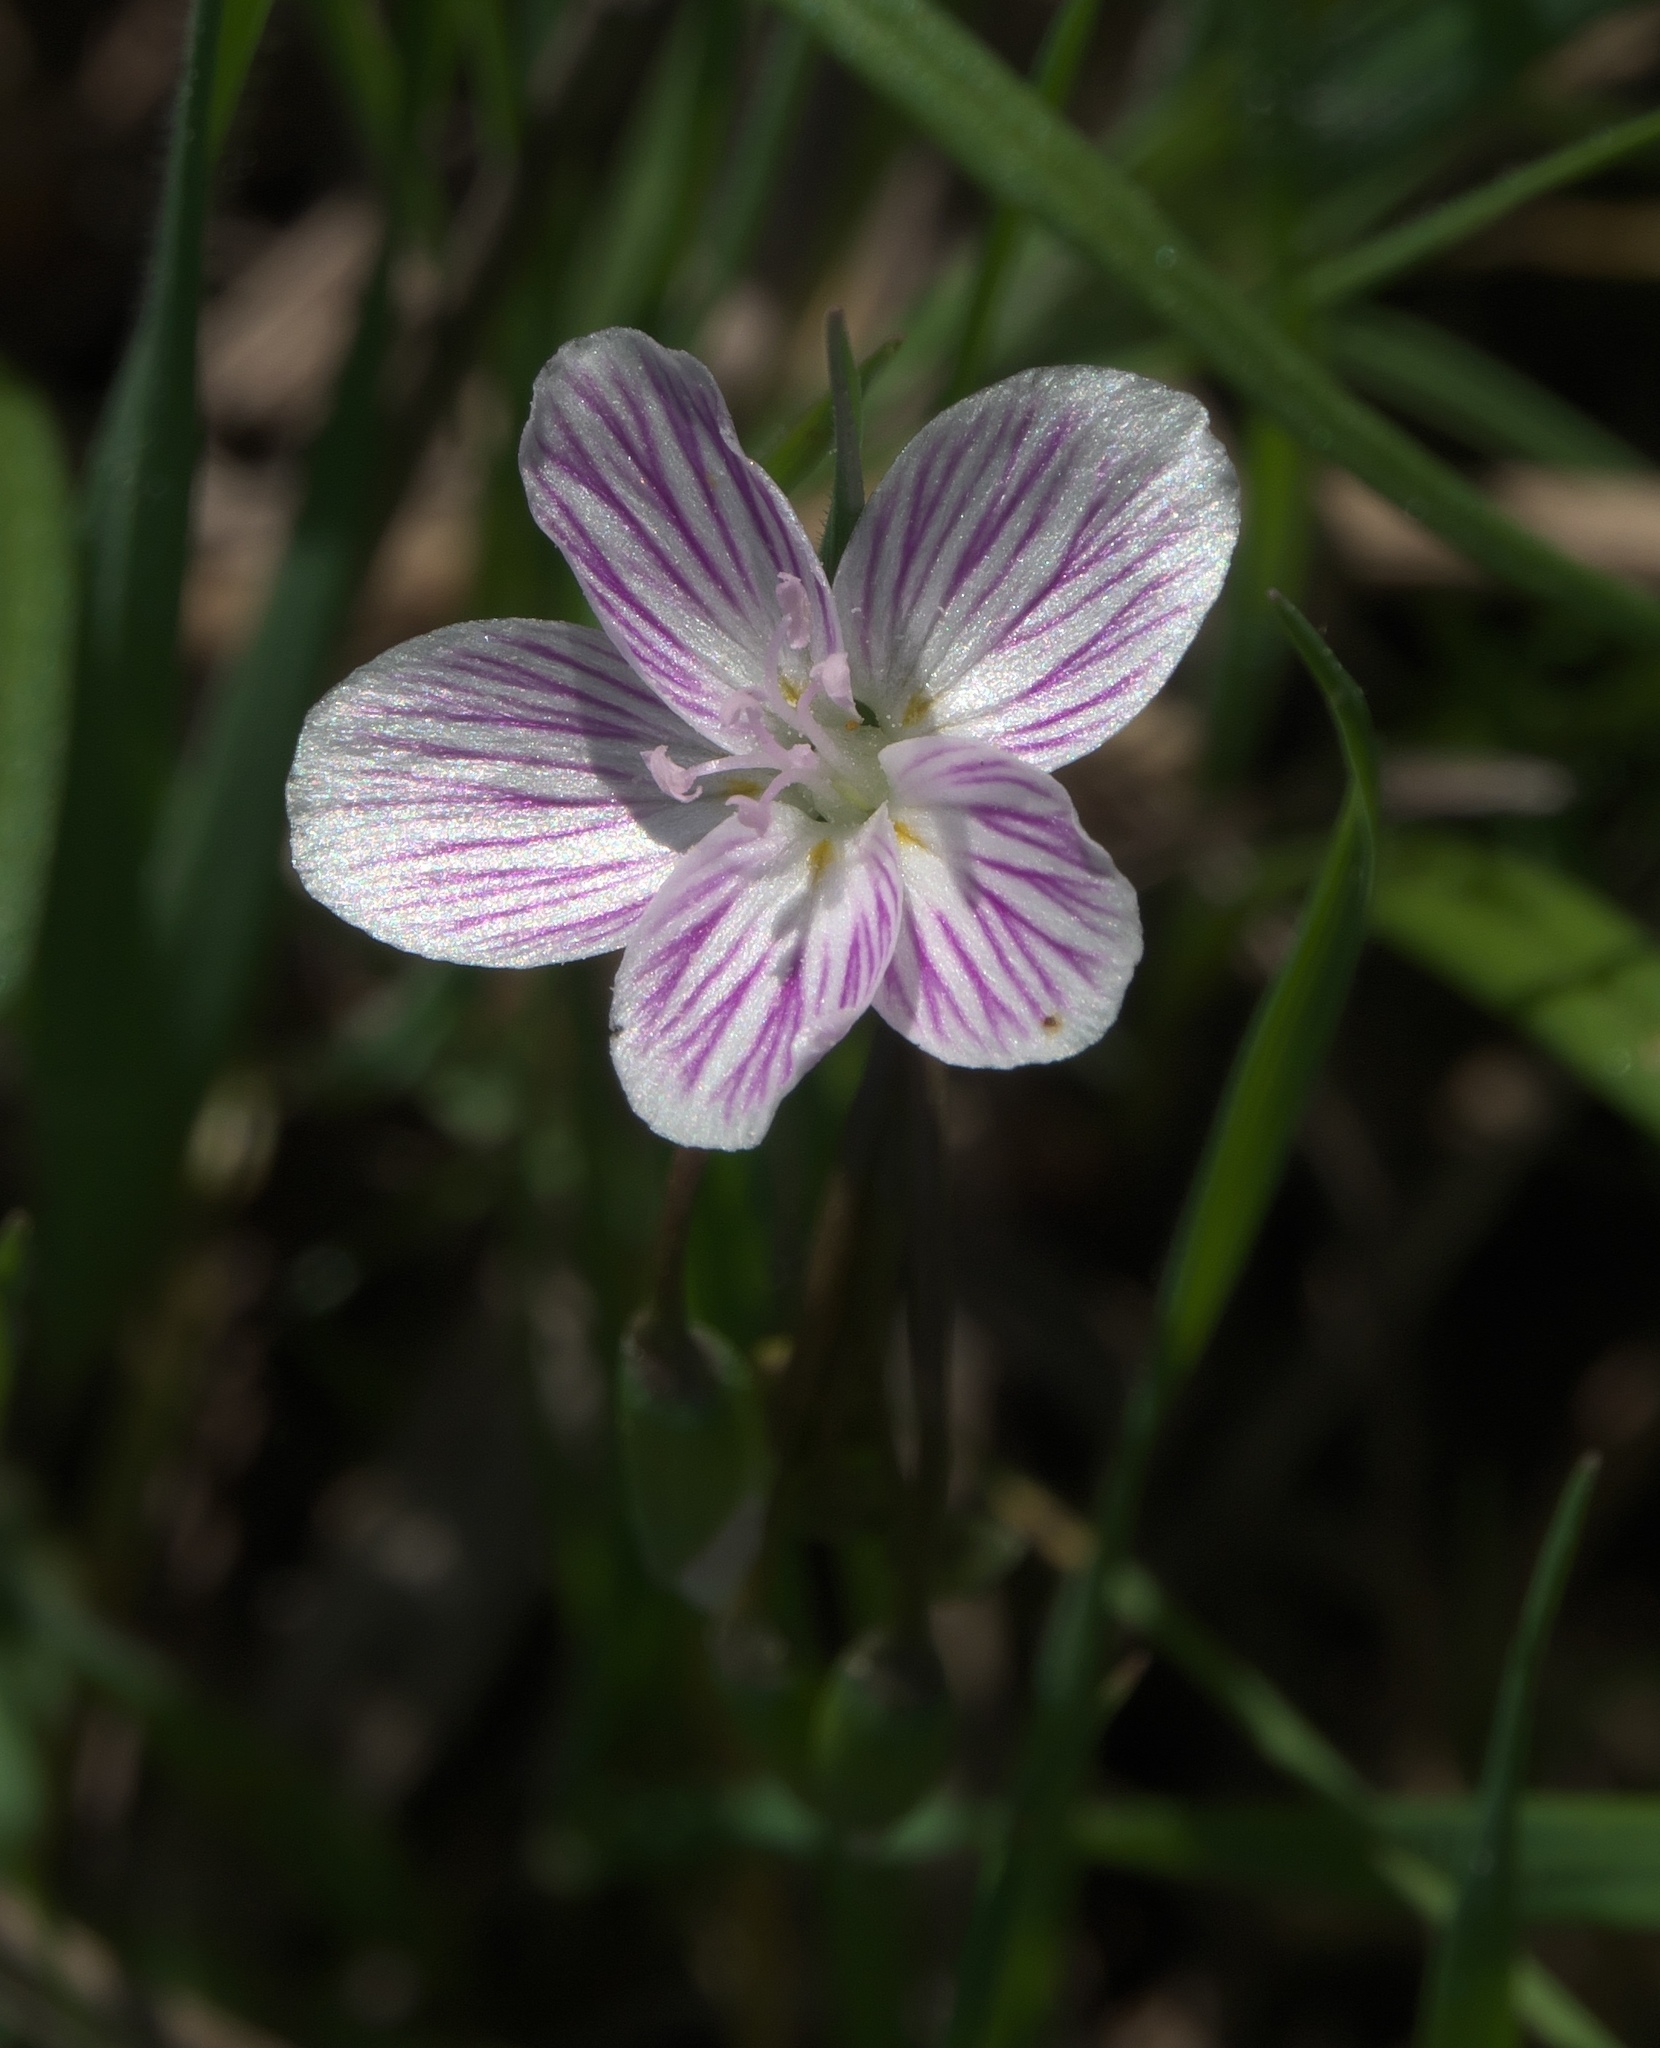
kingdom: Plantae
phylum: Tracheophyta
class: Magnoliopsida
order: Caryophyllales
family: Montiaceae
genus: Claytonia
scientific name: Claytonia virginica
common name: Virginia springbeauty
